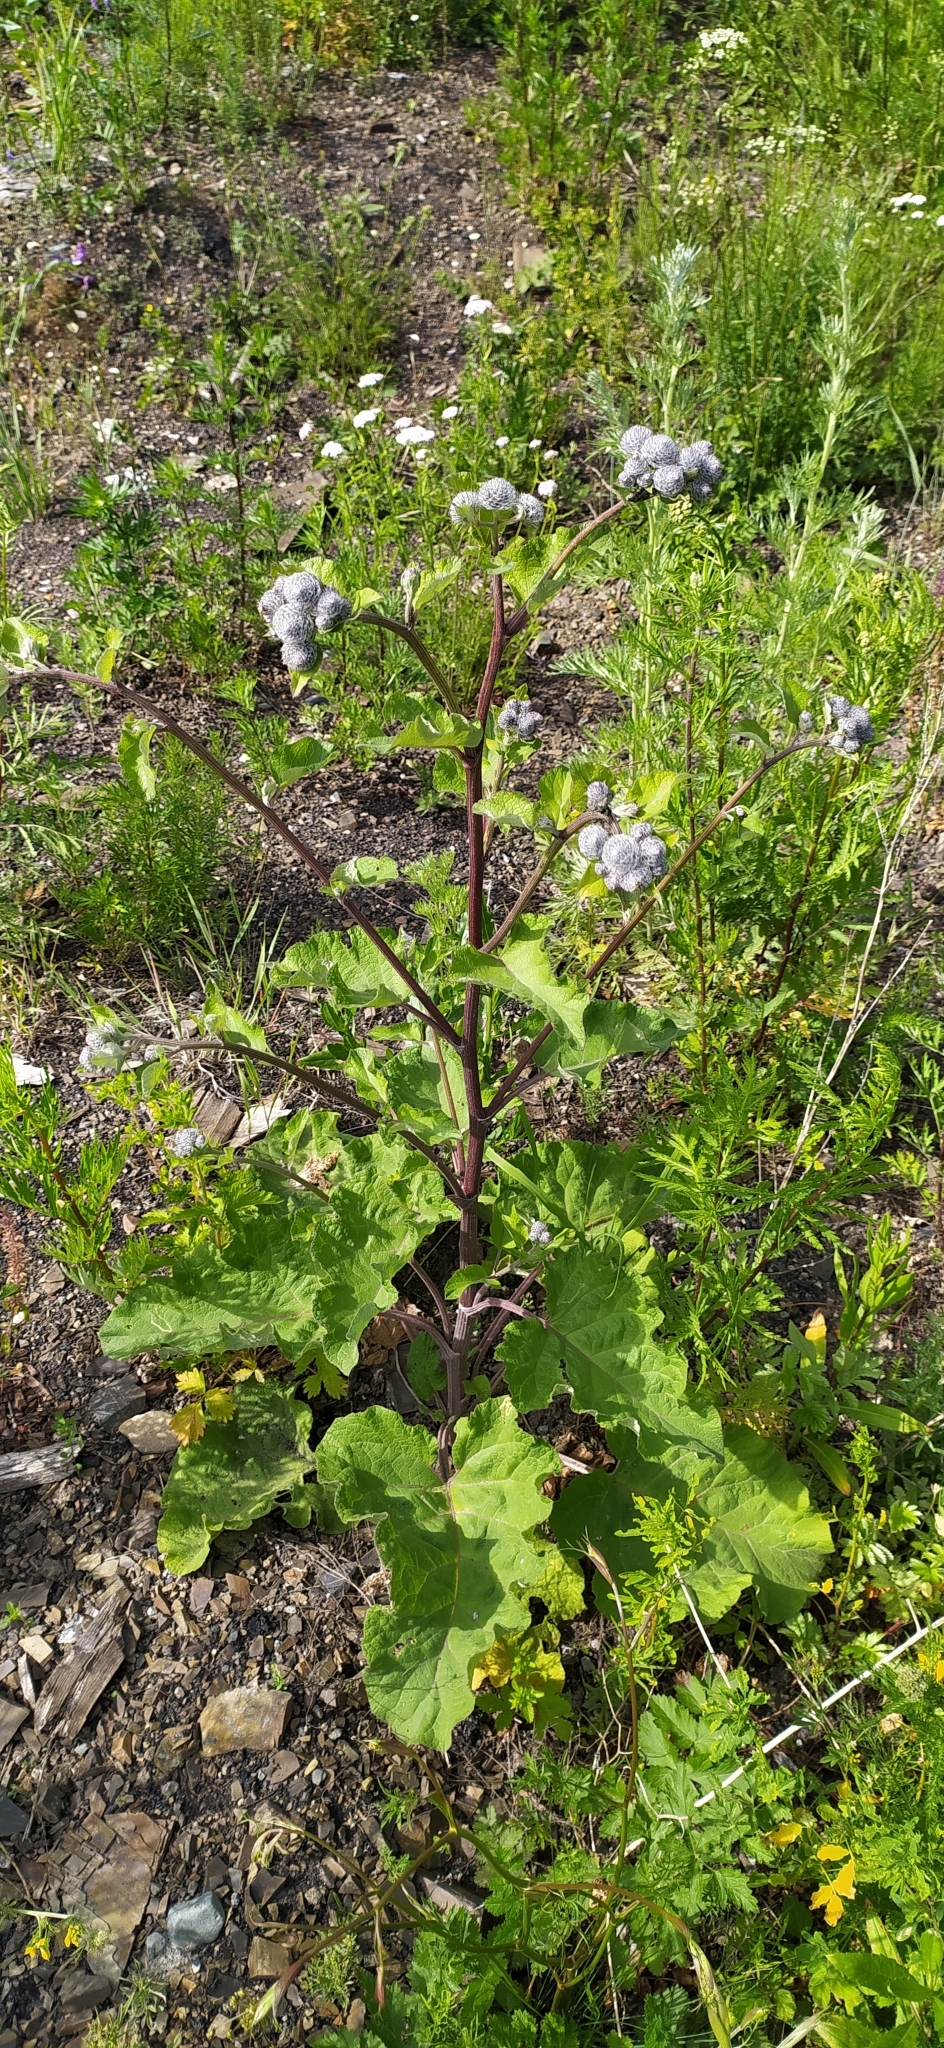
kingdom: Plantae
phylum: Tracheophyta
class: Magnoliopsida
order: Asterales
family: Asteraceae
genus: Arctium
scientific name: Arctium tomentosum
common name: Woolly burdock
